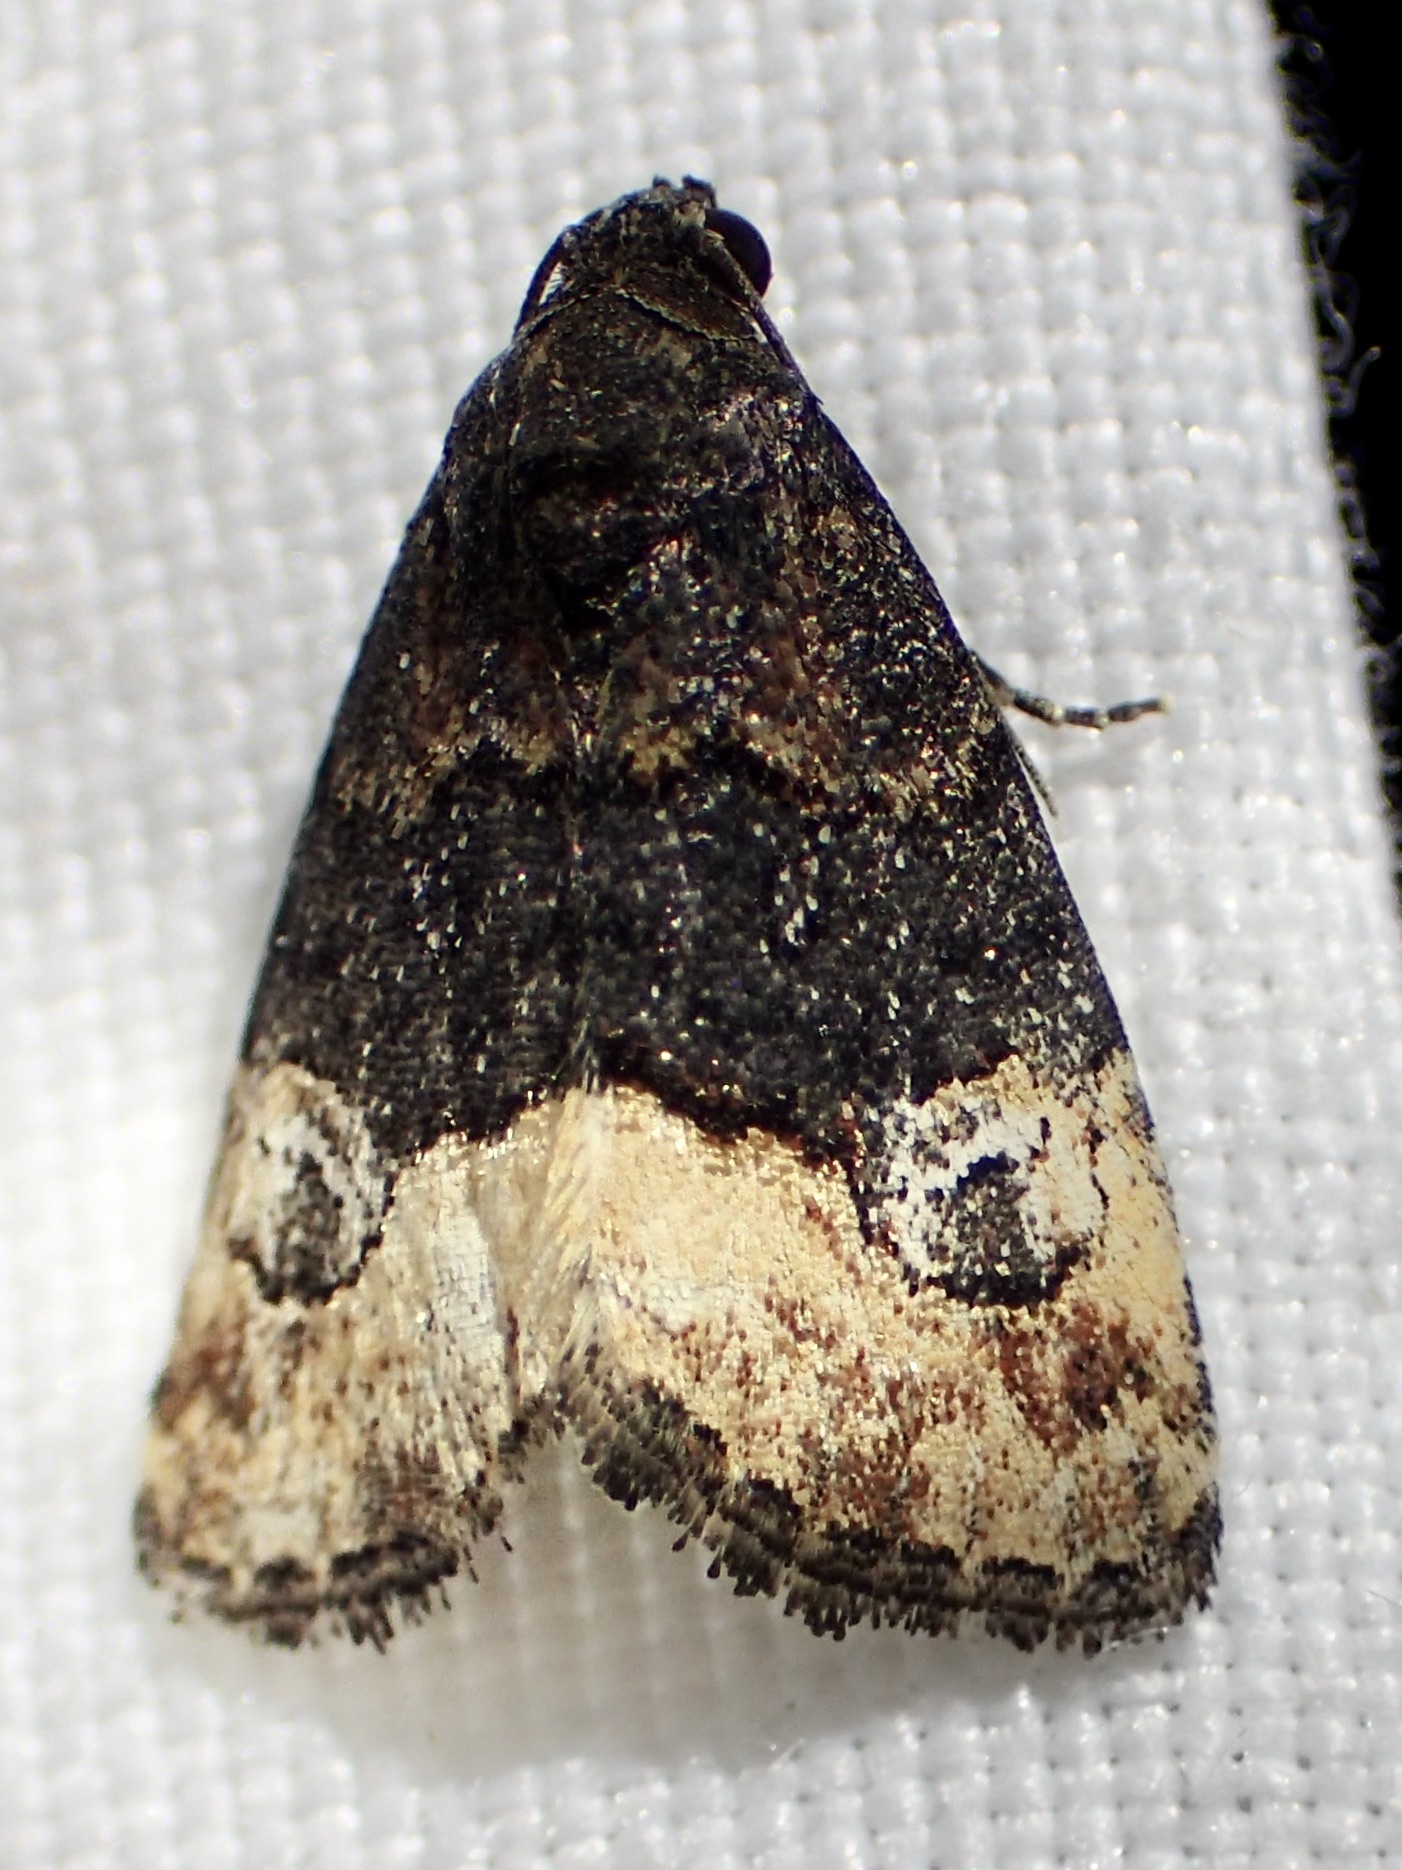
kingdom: Animalia
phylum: Arthropoda
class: Insecta
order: Lepidoptera
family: Noctuidae
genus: Ozarba
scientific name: Ozarba propera
